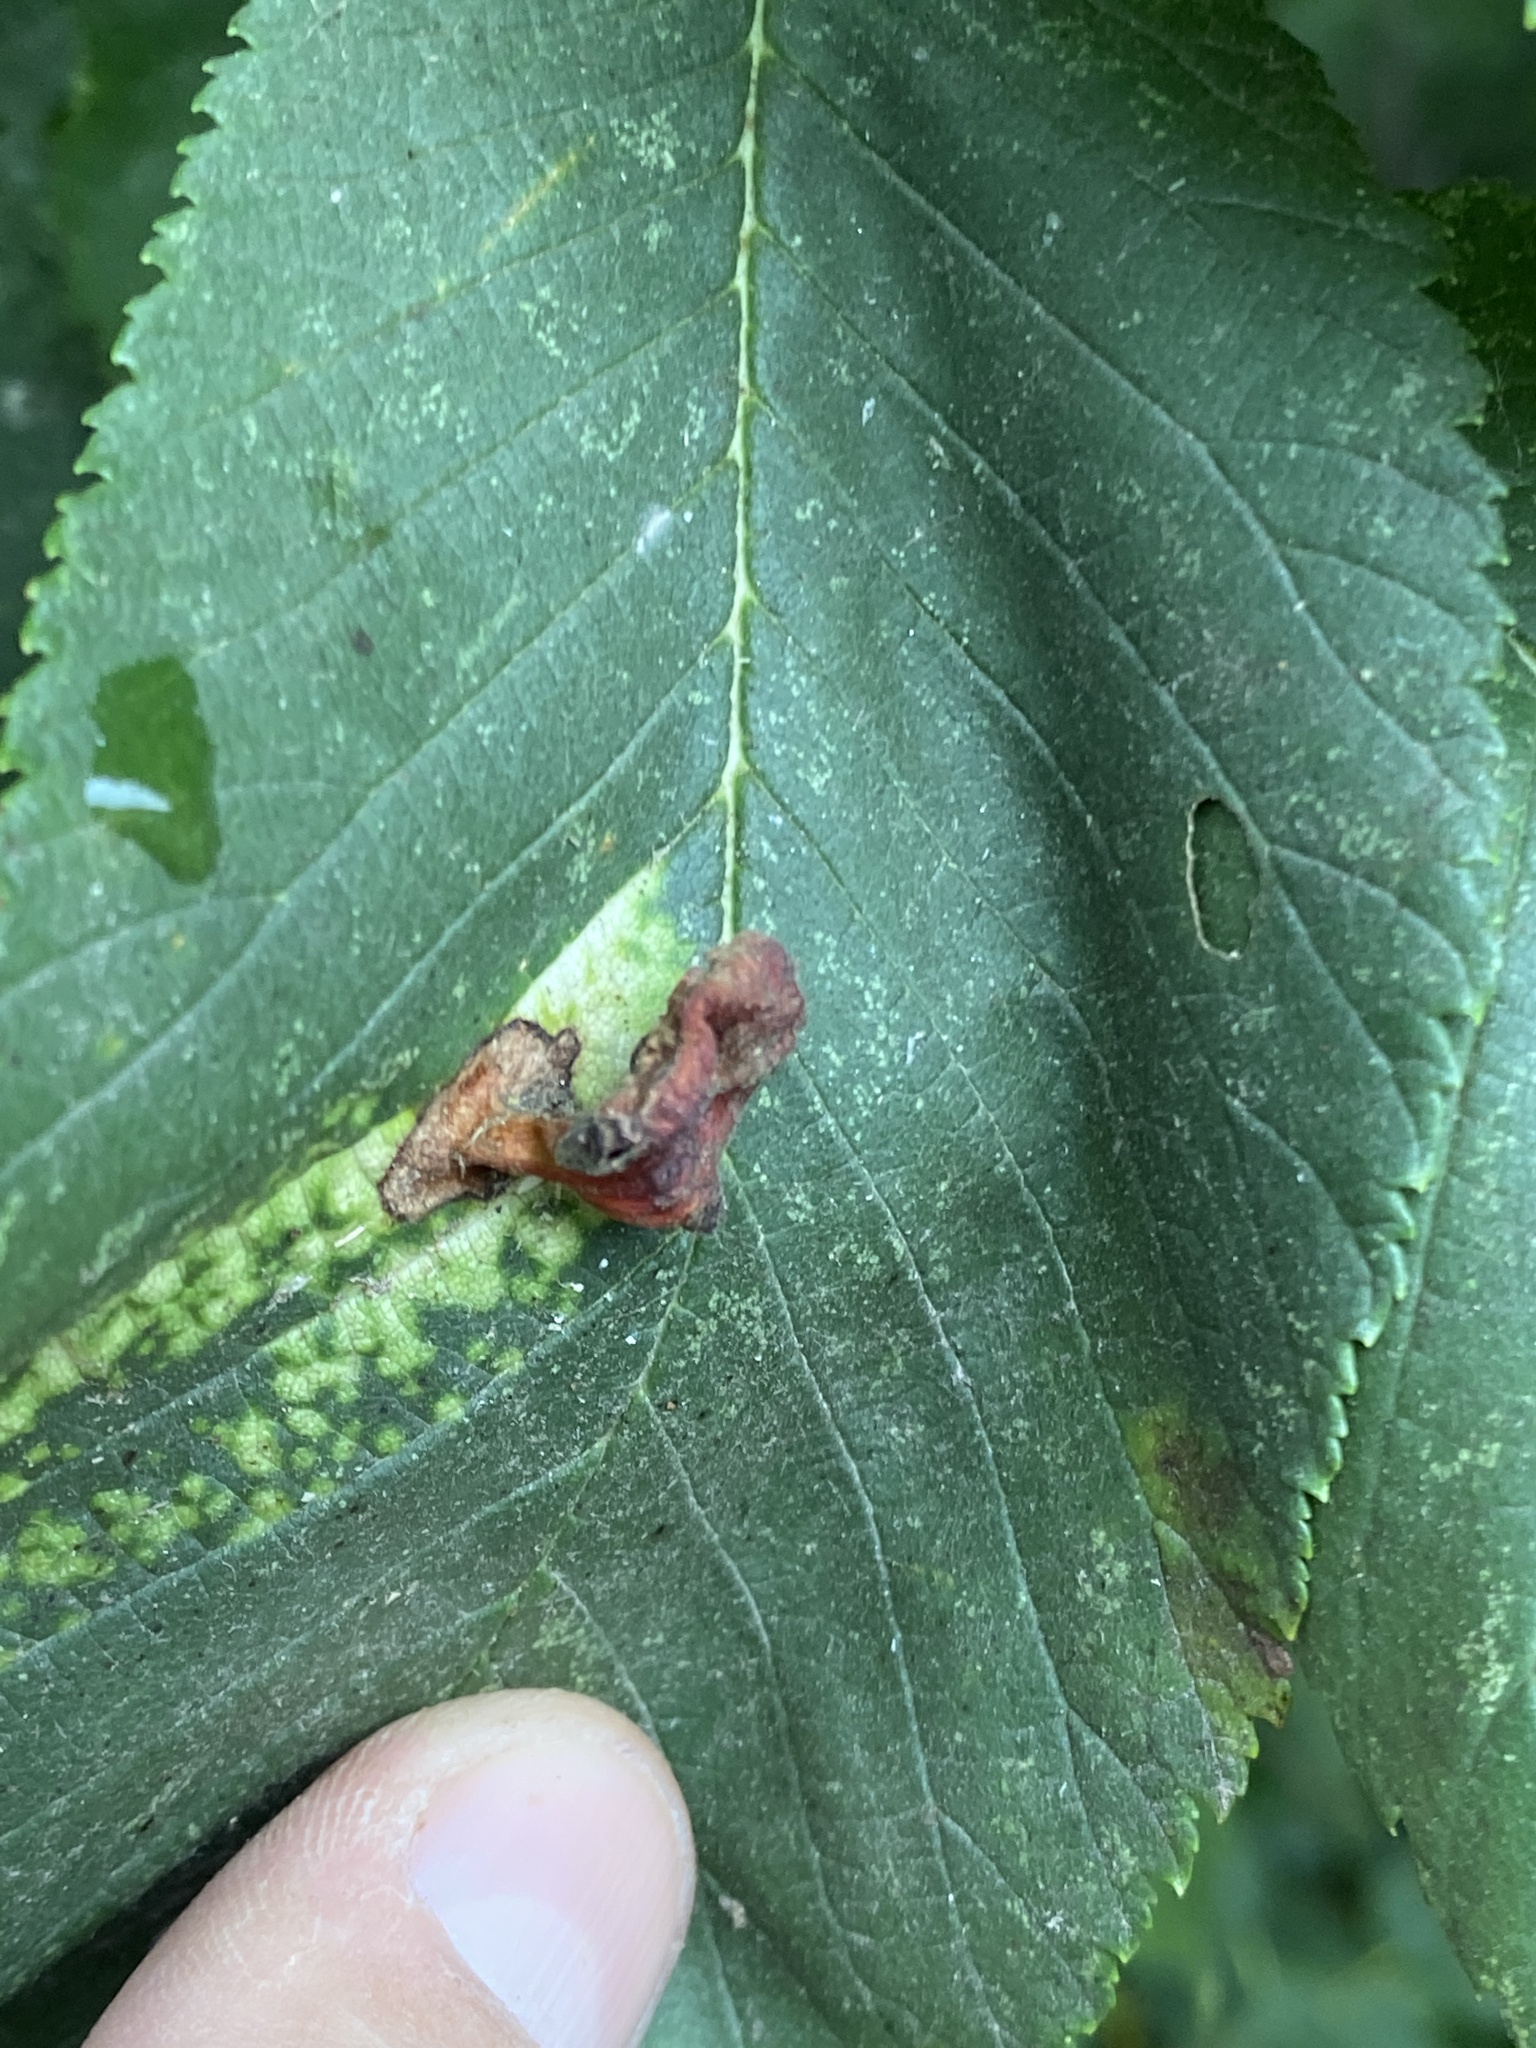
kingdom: Animalia
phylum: Arthropoda
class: Insecta
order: Hemiptera
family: Aphididae
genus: Tetraneura
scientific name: Tetraneura nigriabdominalis
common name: Aphid
